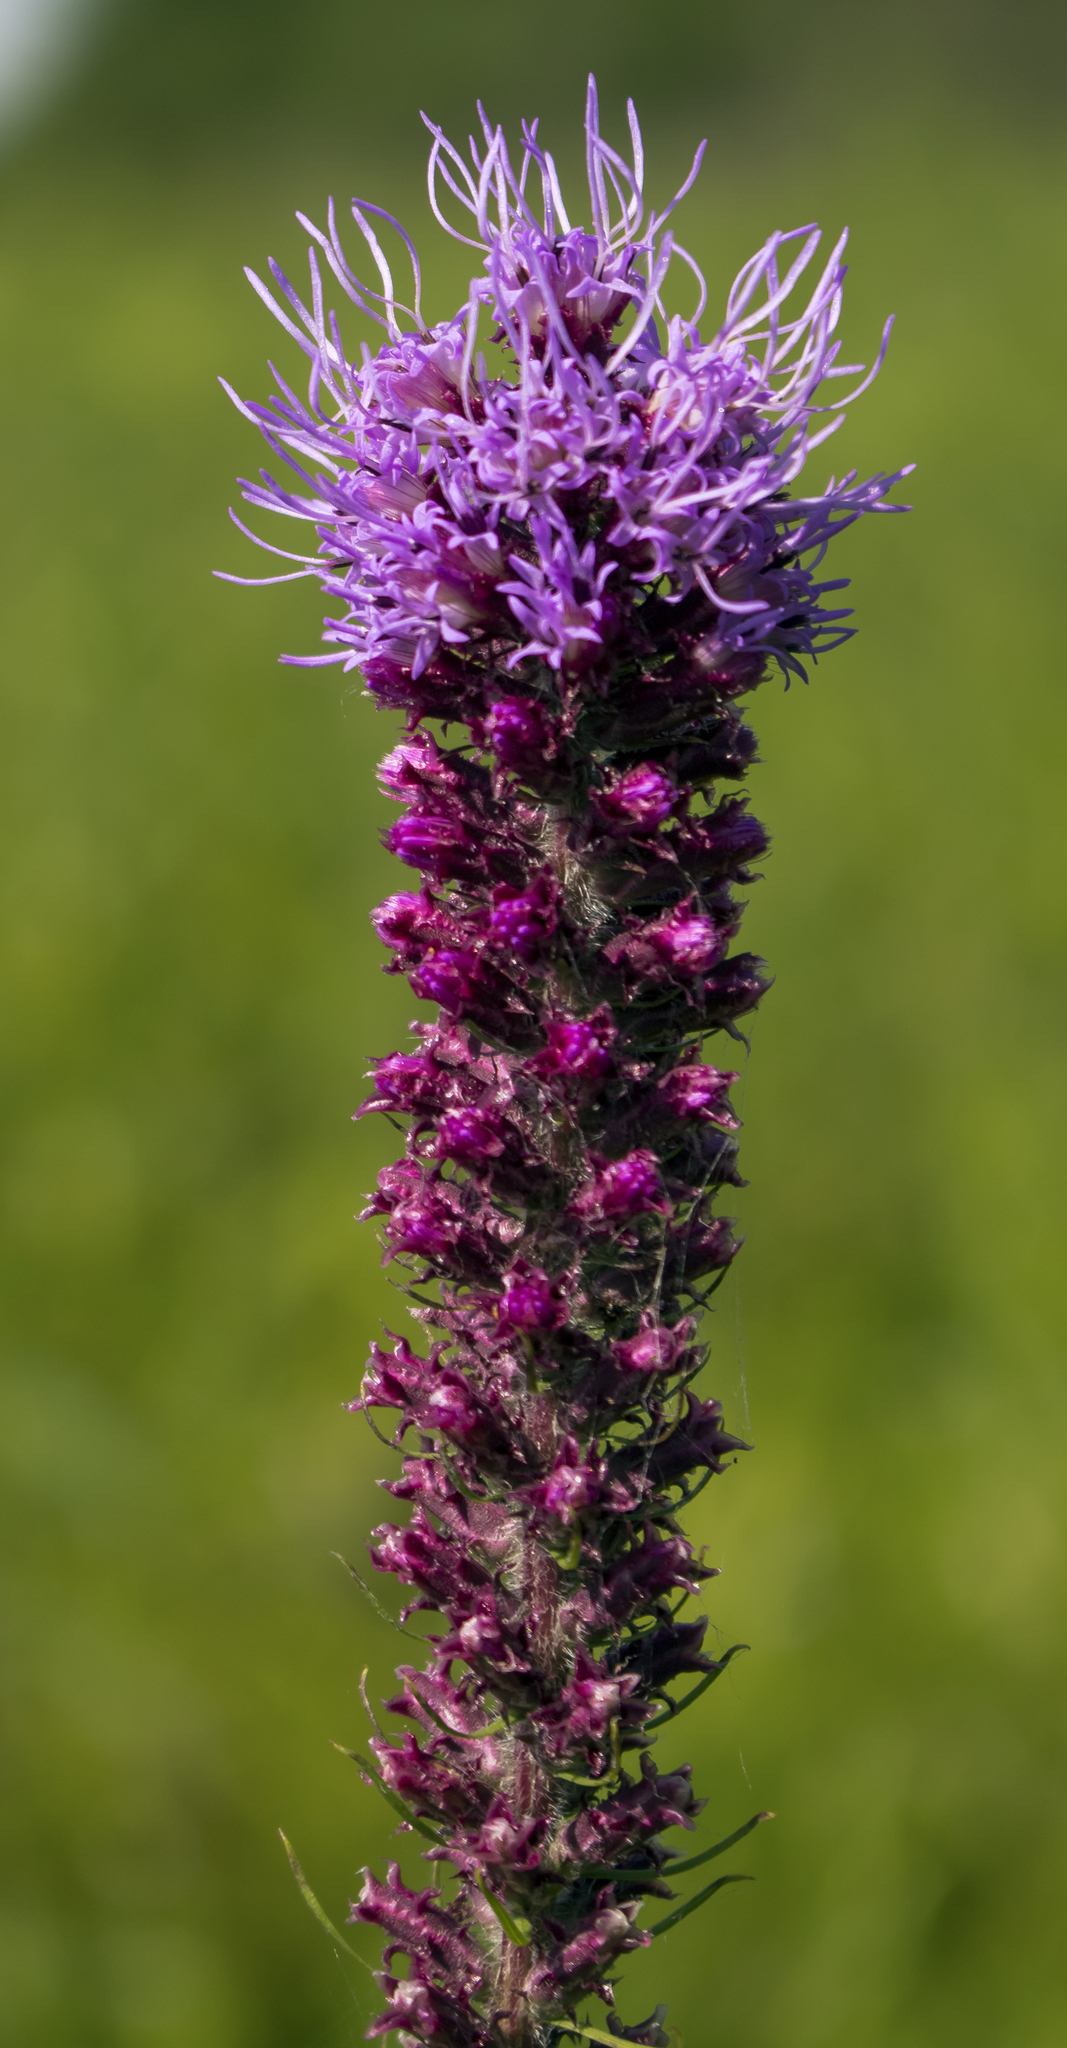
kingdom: Plantae
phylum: Tracheophyta
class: Magnoliopsida
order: Asterales
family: Asteraceae
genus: Liatris
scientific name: Liatris pycnostachya
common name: Cattail gayfeather
